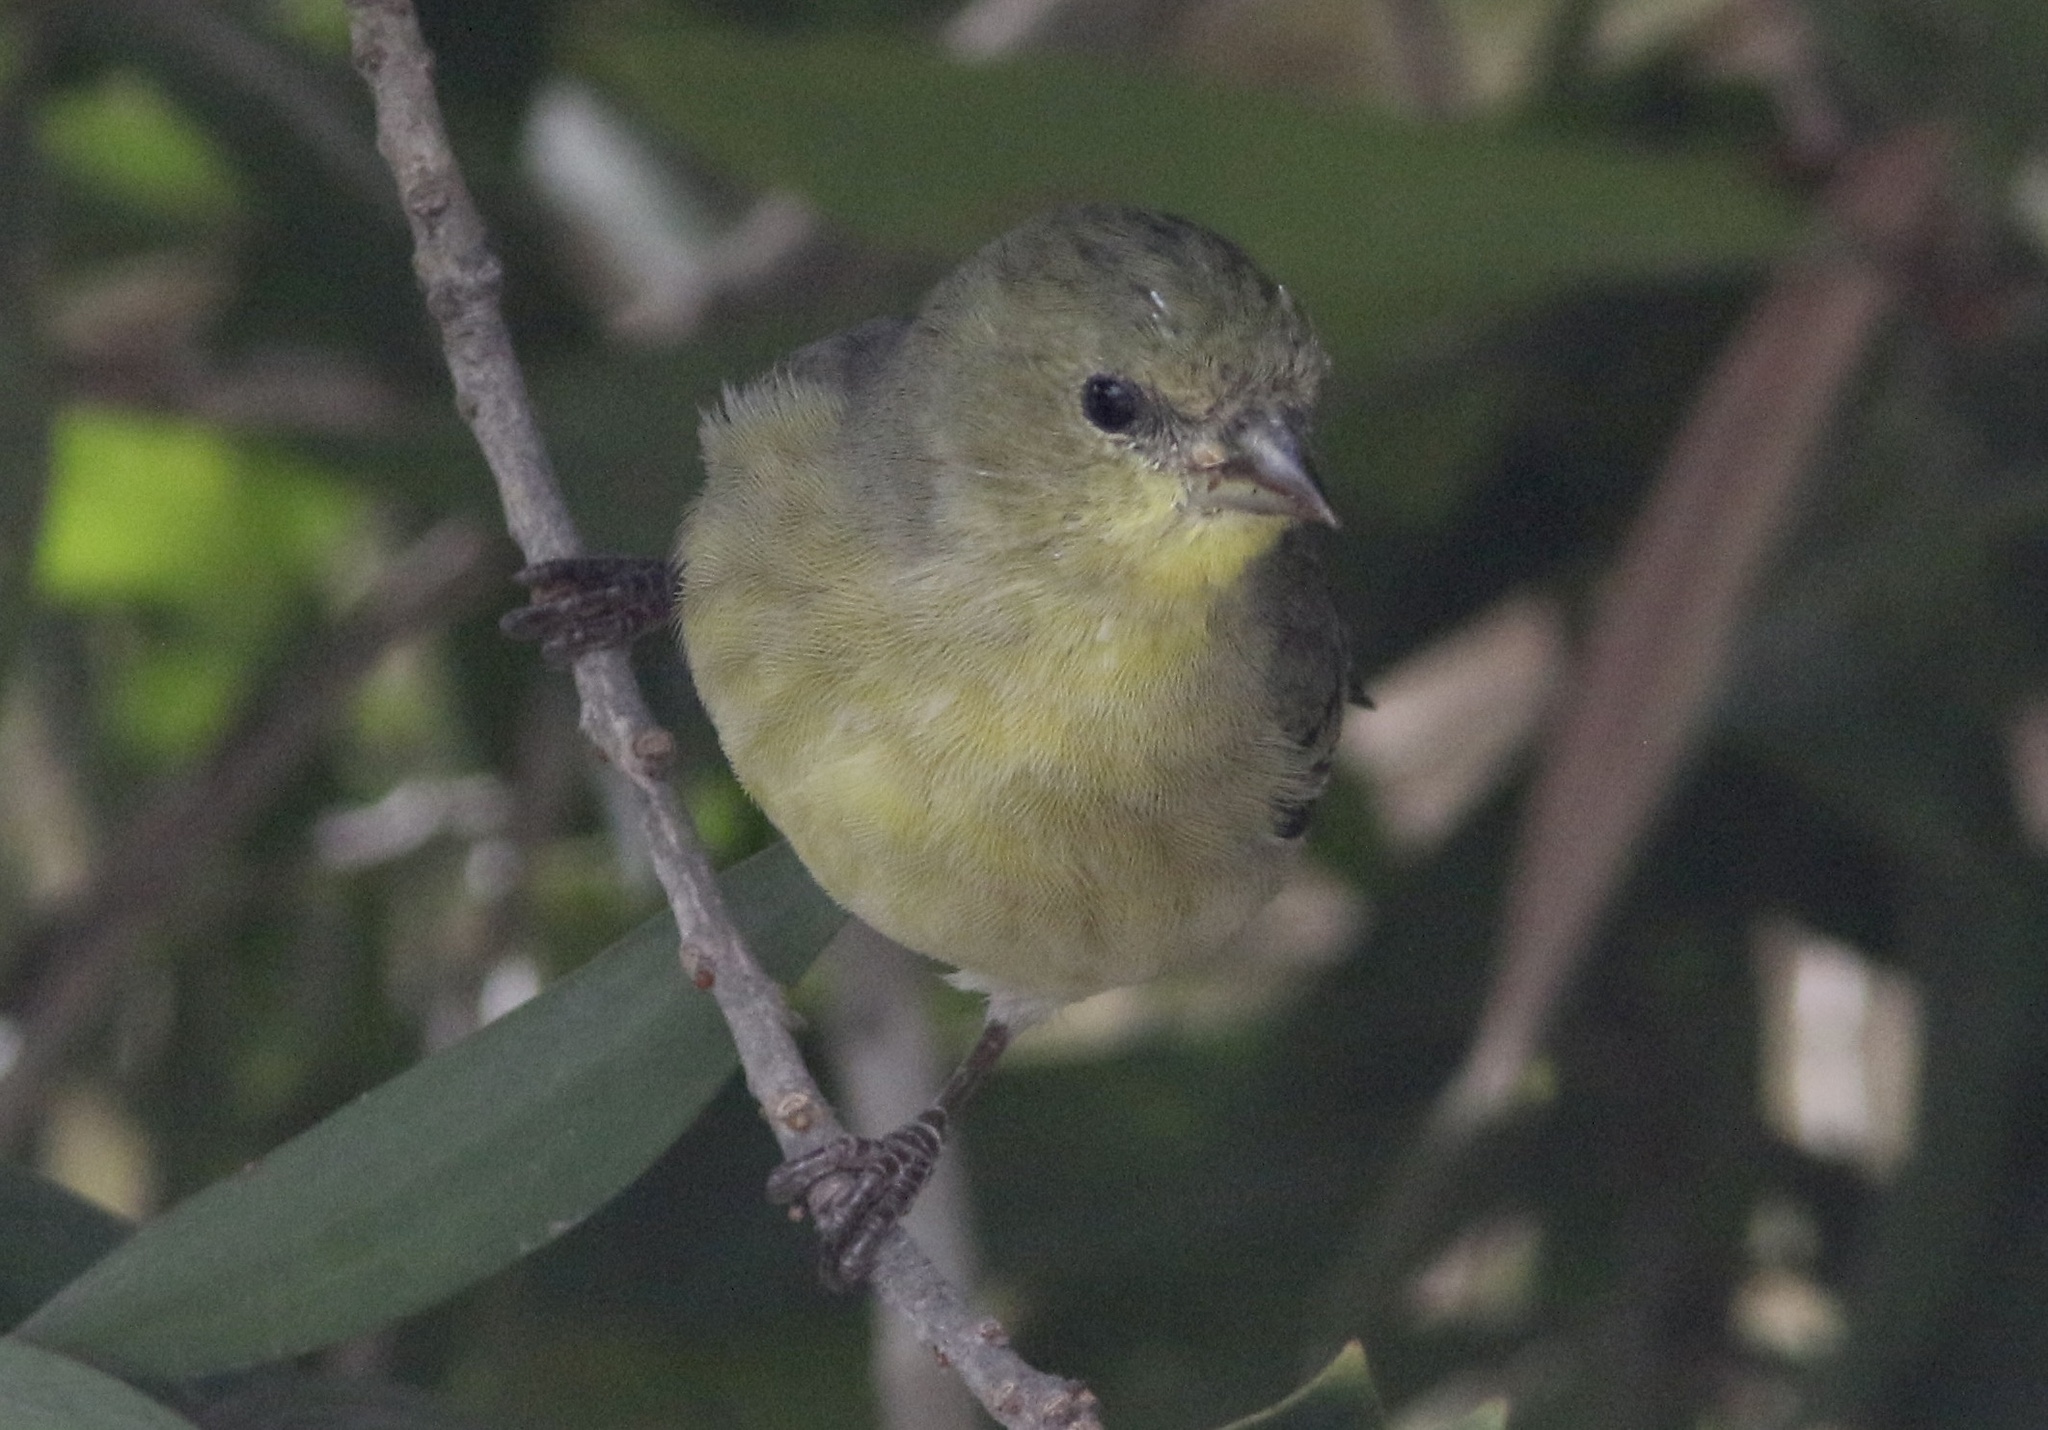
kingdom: Animalia
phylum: Chordata
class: Aves
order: Passeriformes
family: Fringillidae
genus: Spinus
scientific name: Spinus psaltria
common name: Lesser goldfinch
